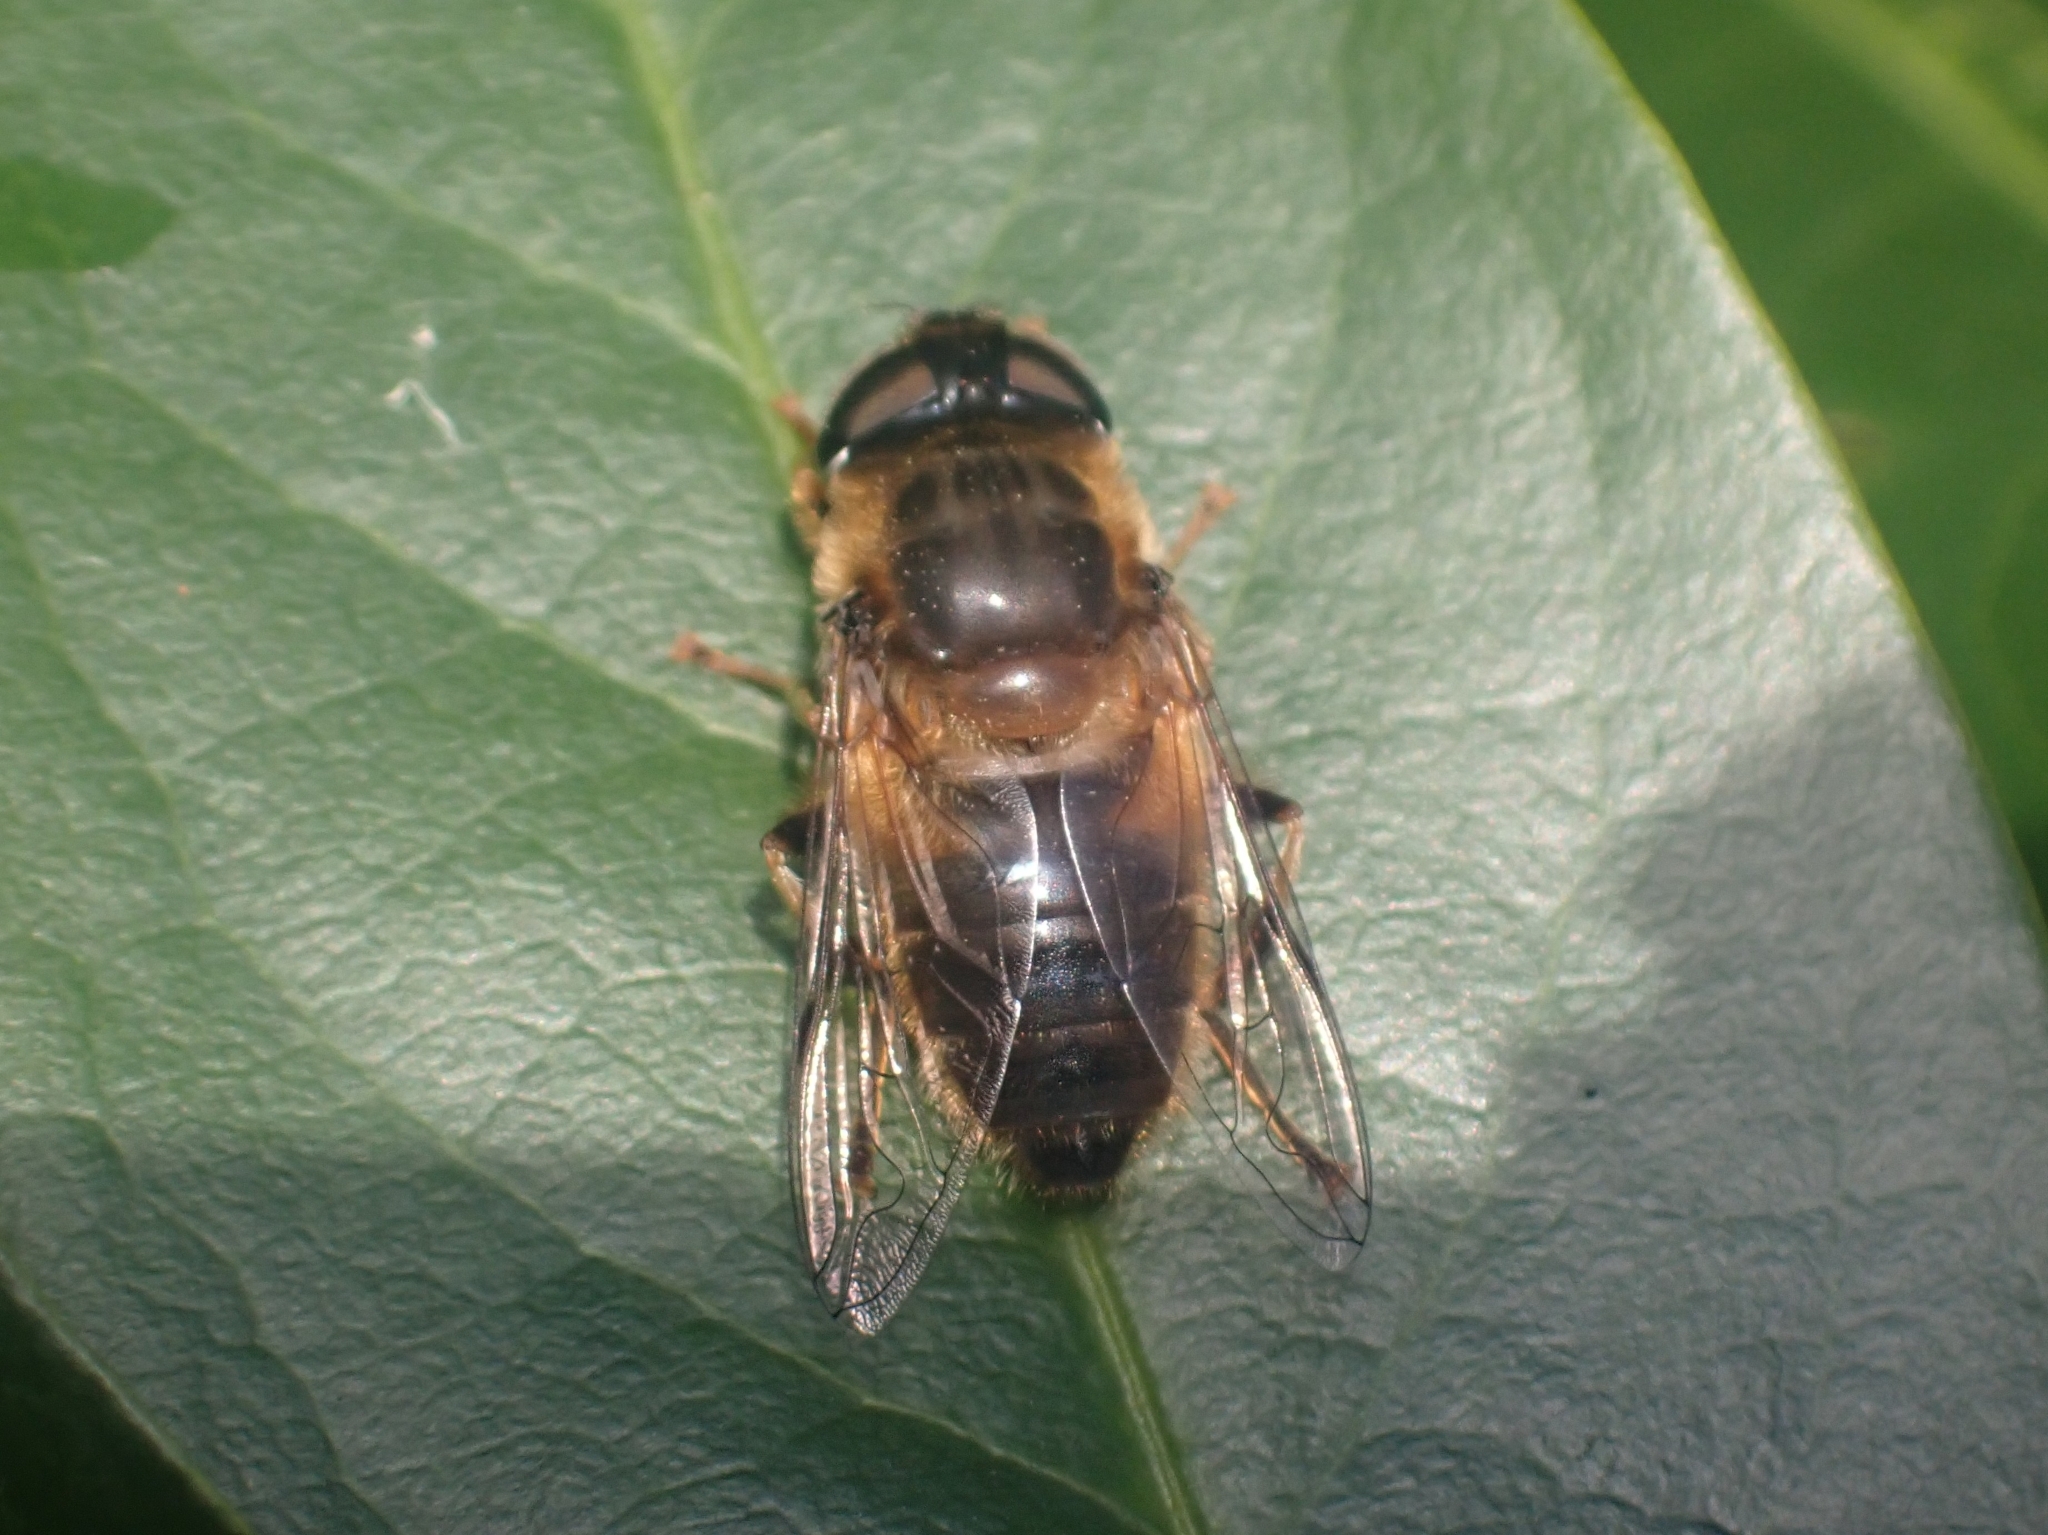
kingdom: Animalia
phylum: Arthropoda
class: Insecta
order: Diptera
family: Syrphidae
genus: Eristalis
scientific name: Eristalis pertinax
